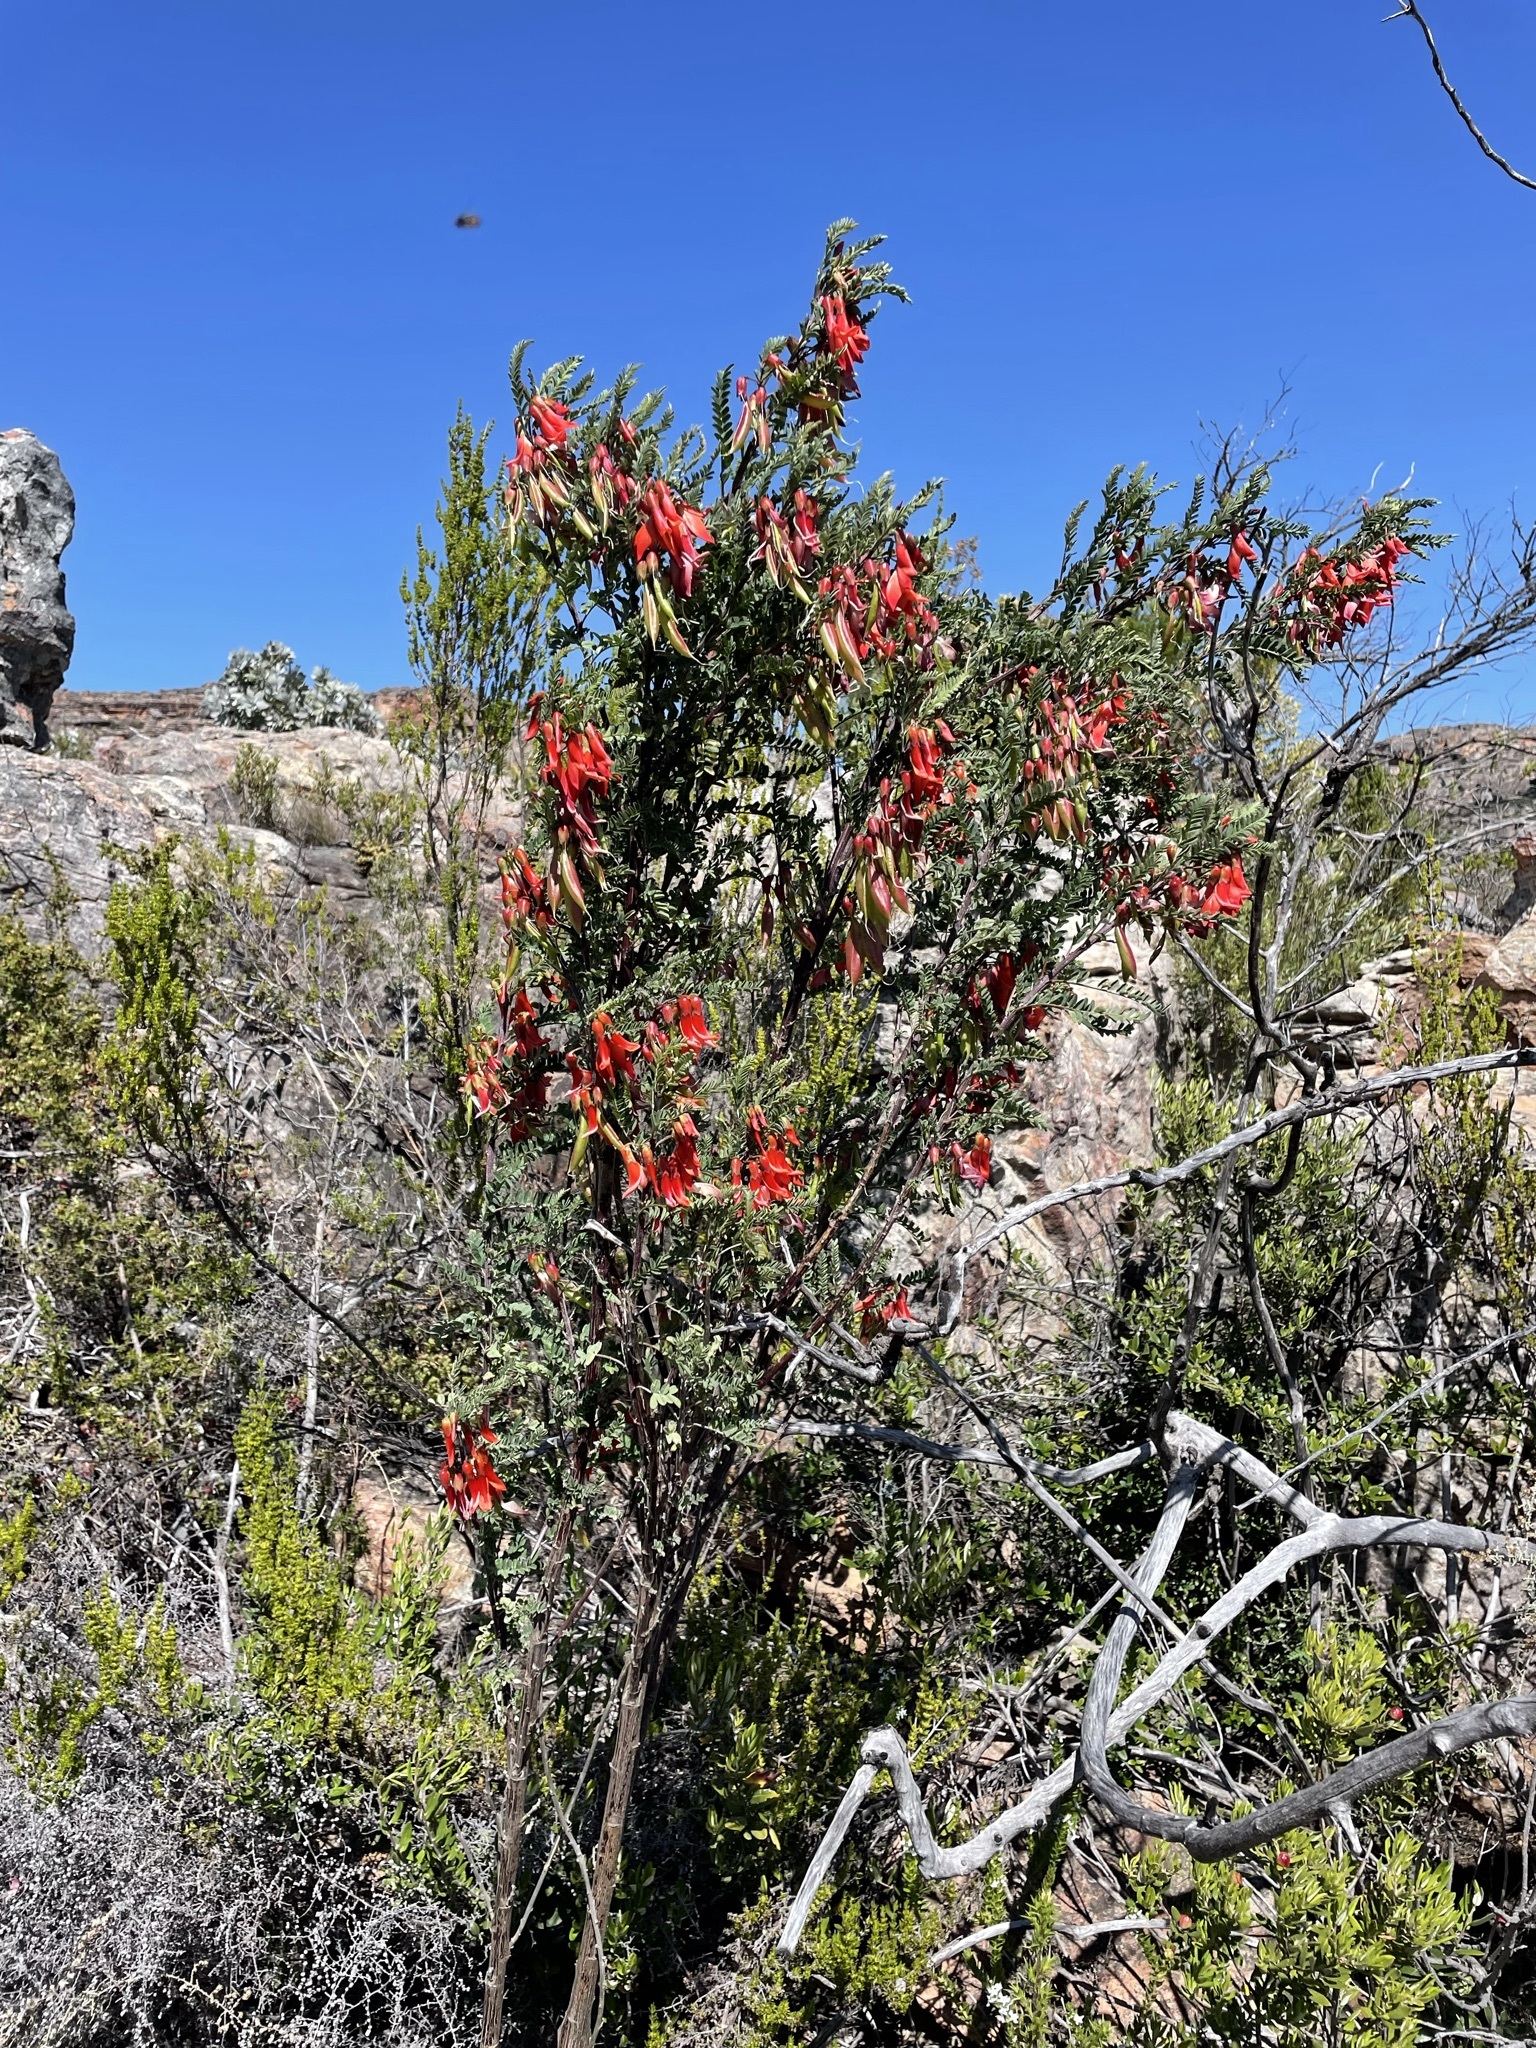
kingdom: Plantae
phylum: Tracheophyta
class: Magnoliopsida
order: Fabales
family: Fabaceae
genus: Lessertia
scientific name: Lessertia frutescens
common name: Balloon-pea
